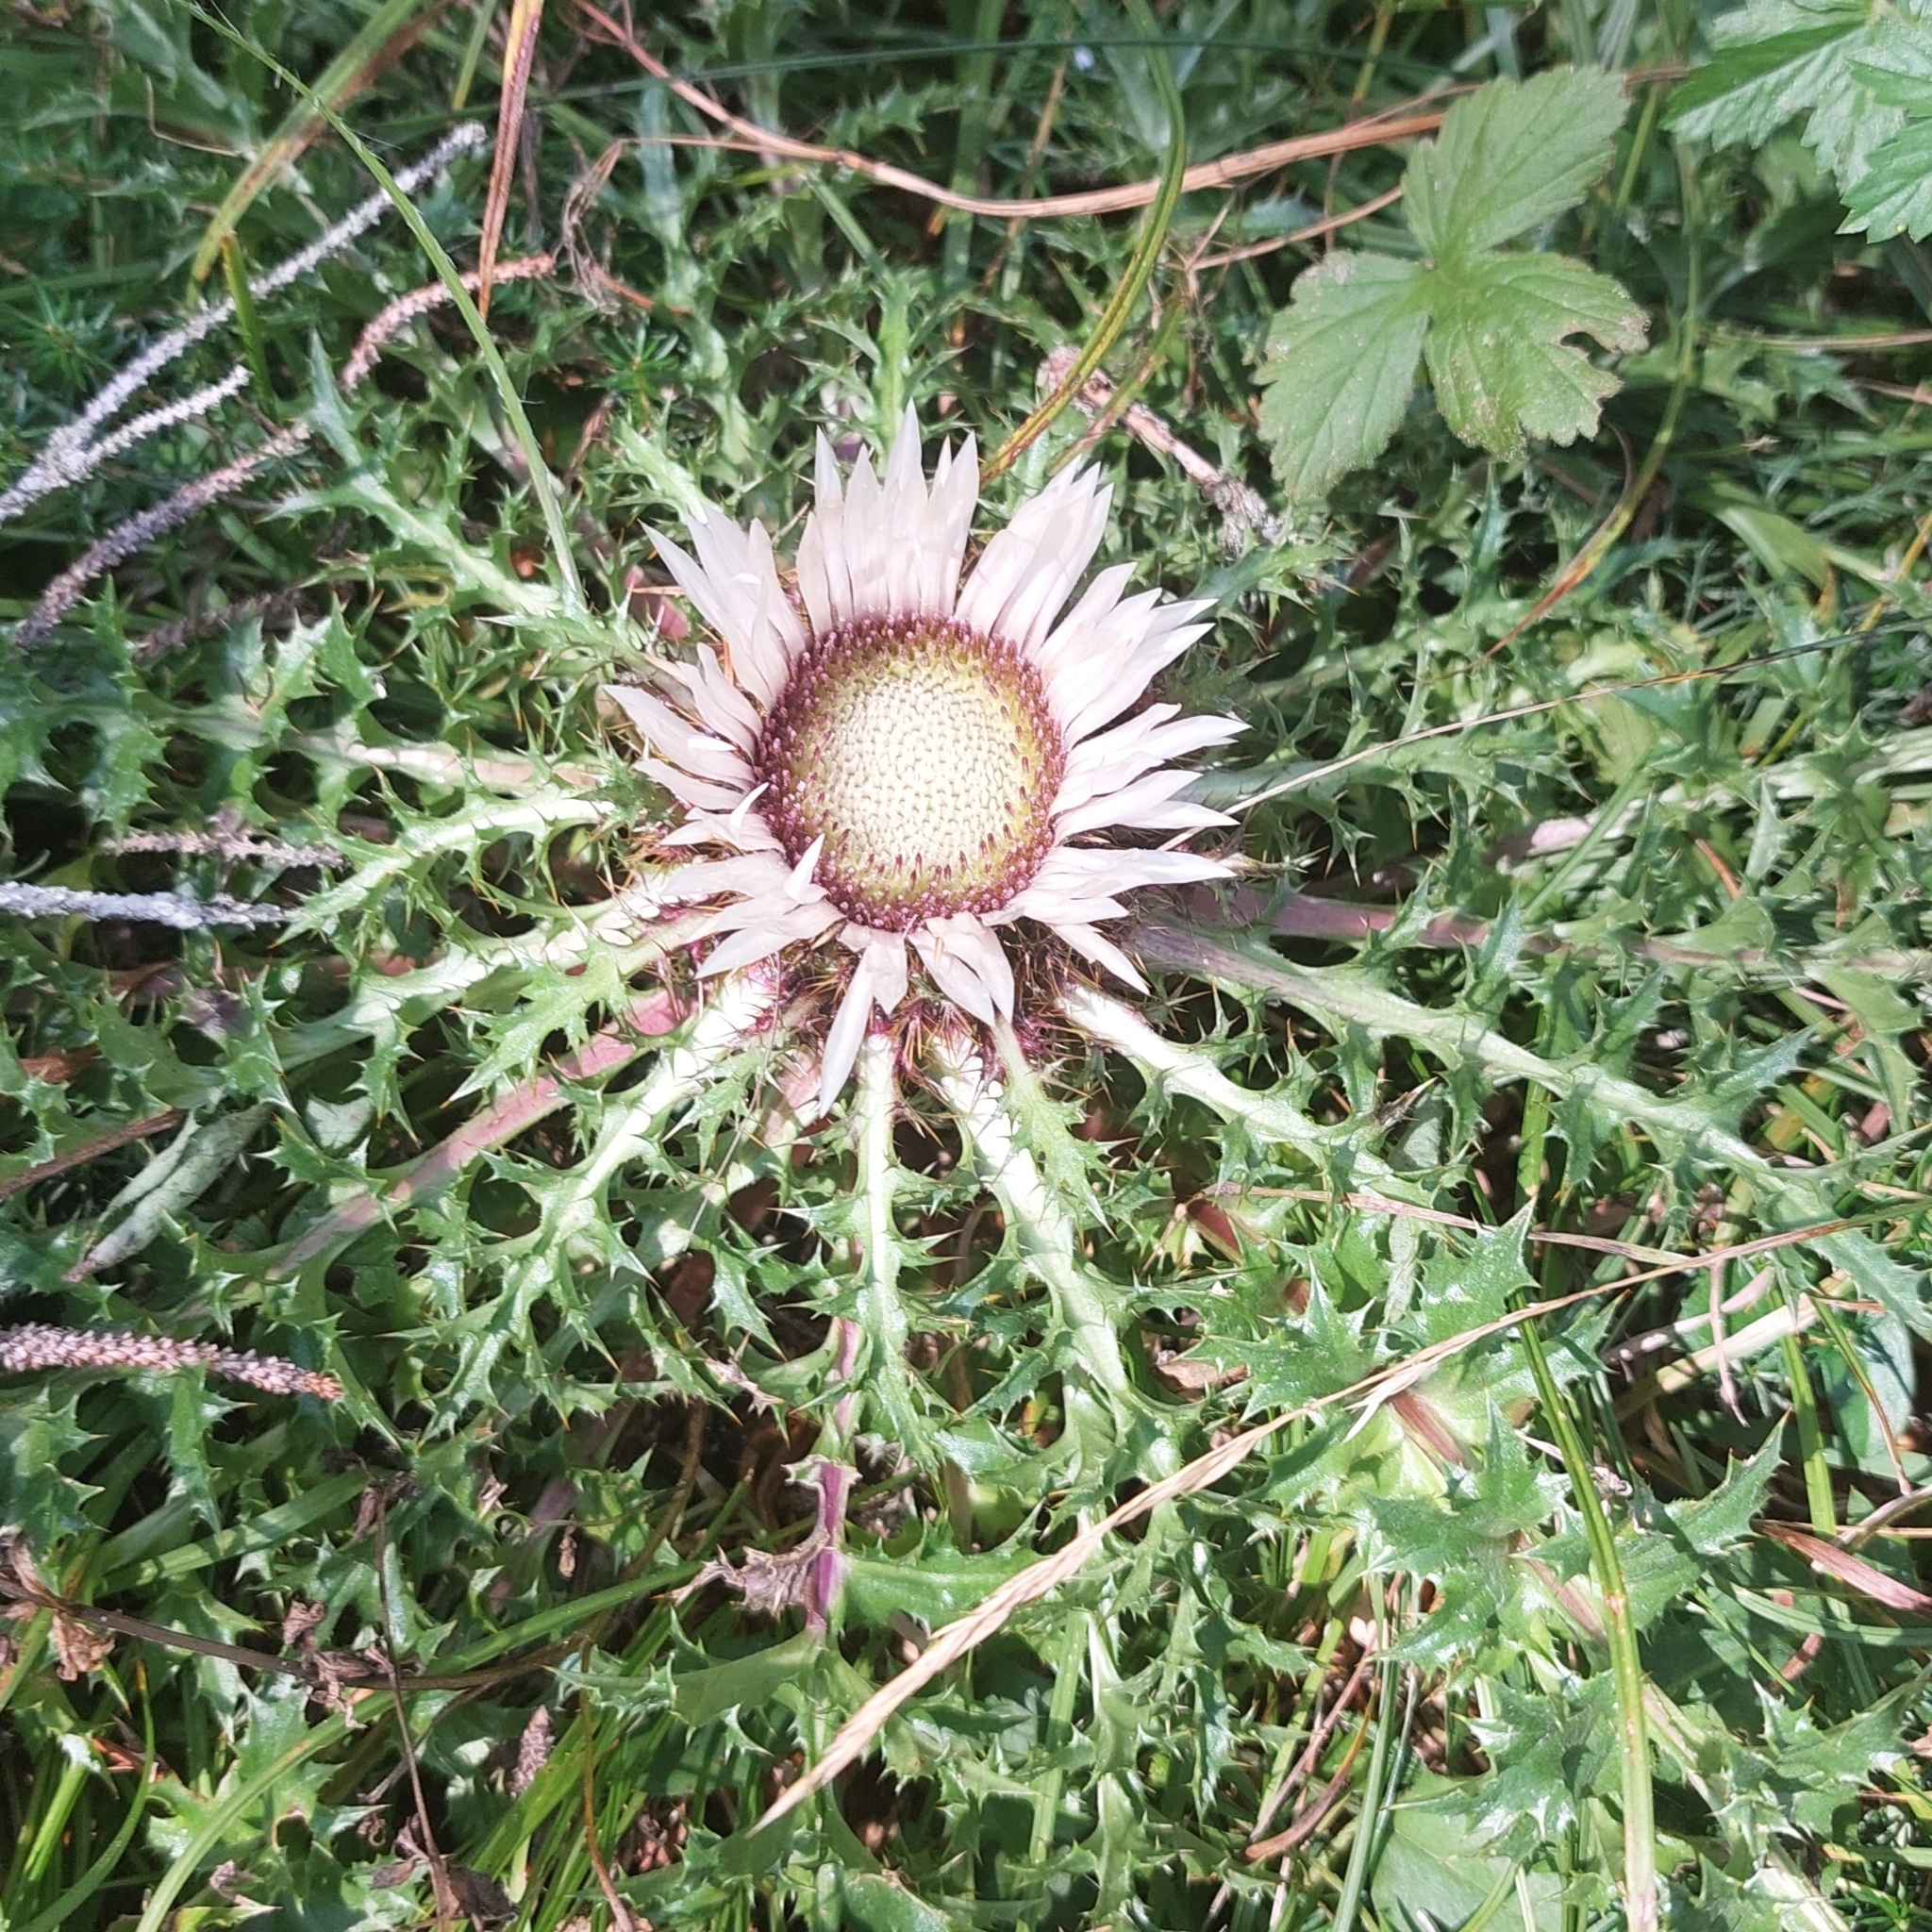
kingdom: Plantae
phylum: Tracheophyta
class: Magnoliopsida
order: Asterales
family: Asteraceae
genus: Carlina
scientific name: Carlina acaulis
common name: Stemless carline thistle
